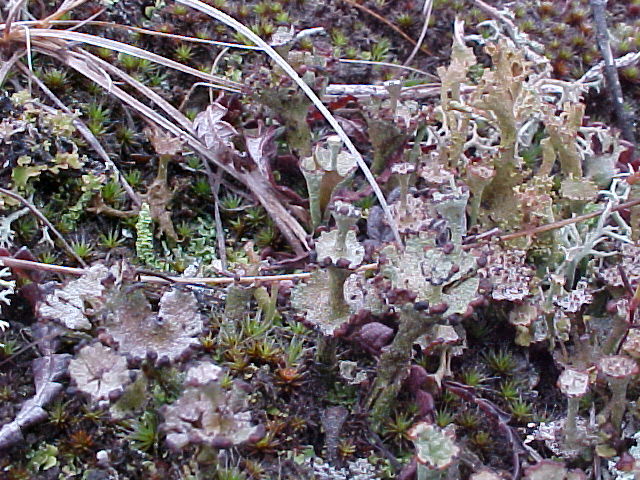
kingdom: Fungi
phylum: Ascomycota
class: Lecanoromycetes
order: Lecanorales
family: Cladoniaceae
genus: Cladonia
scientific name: Cladonia cervicornis
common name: Browned pixie-cup lichen
